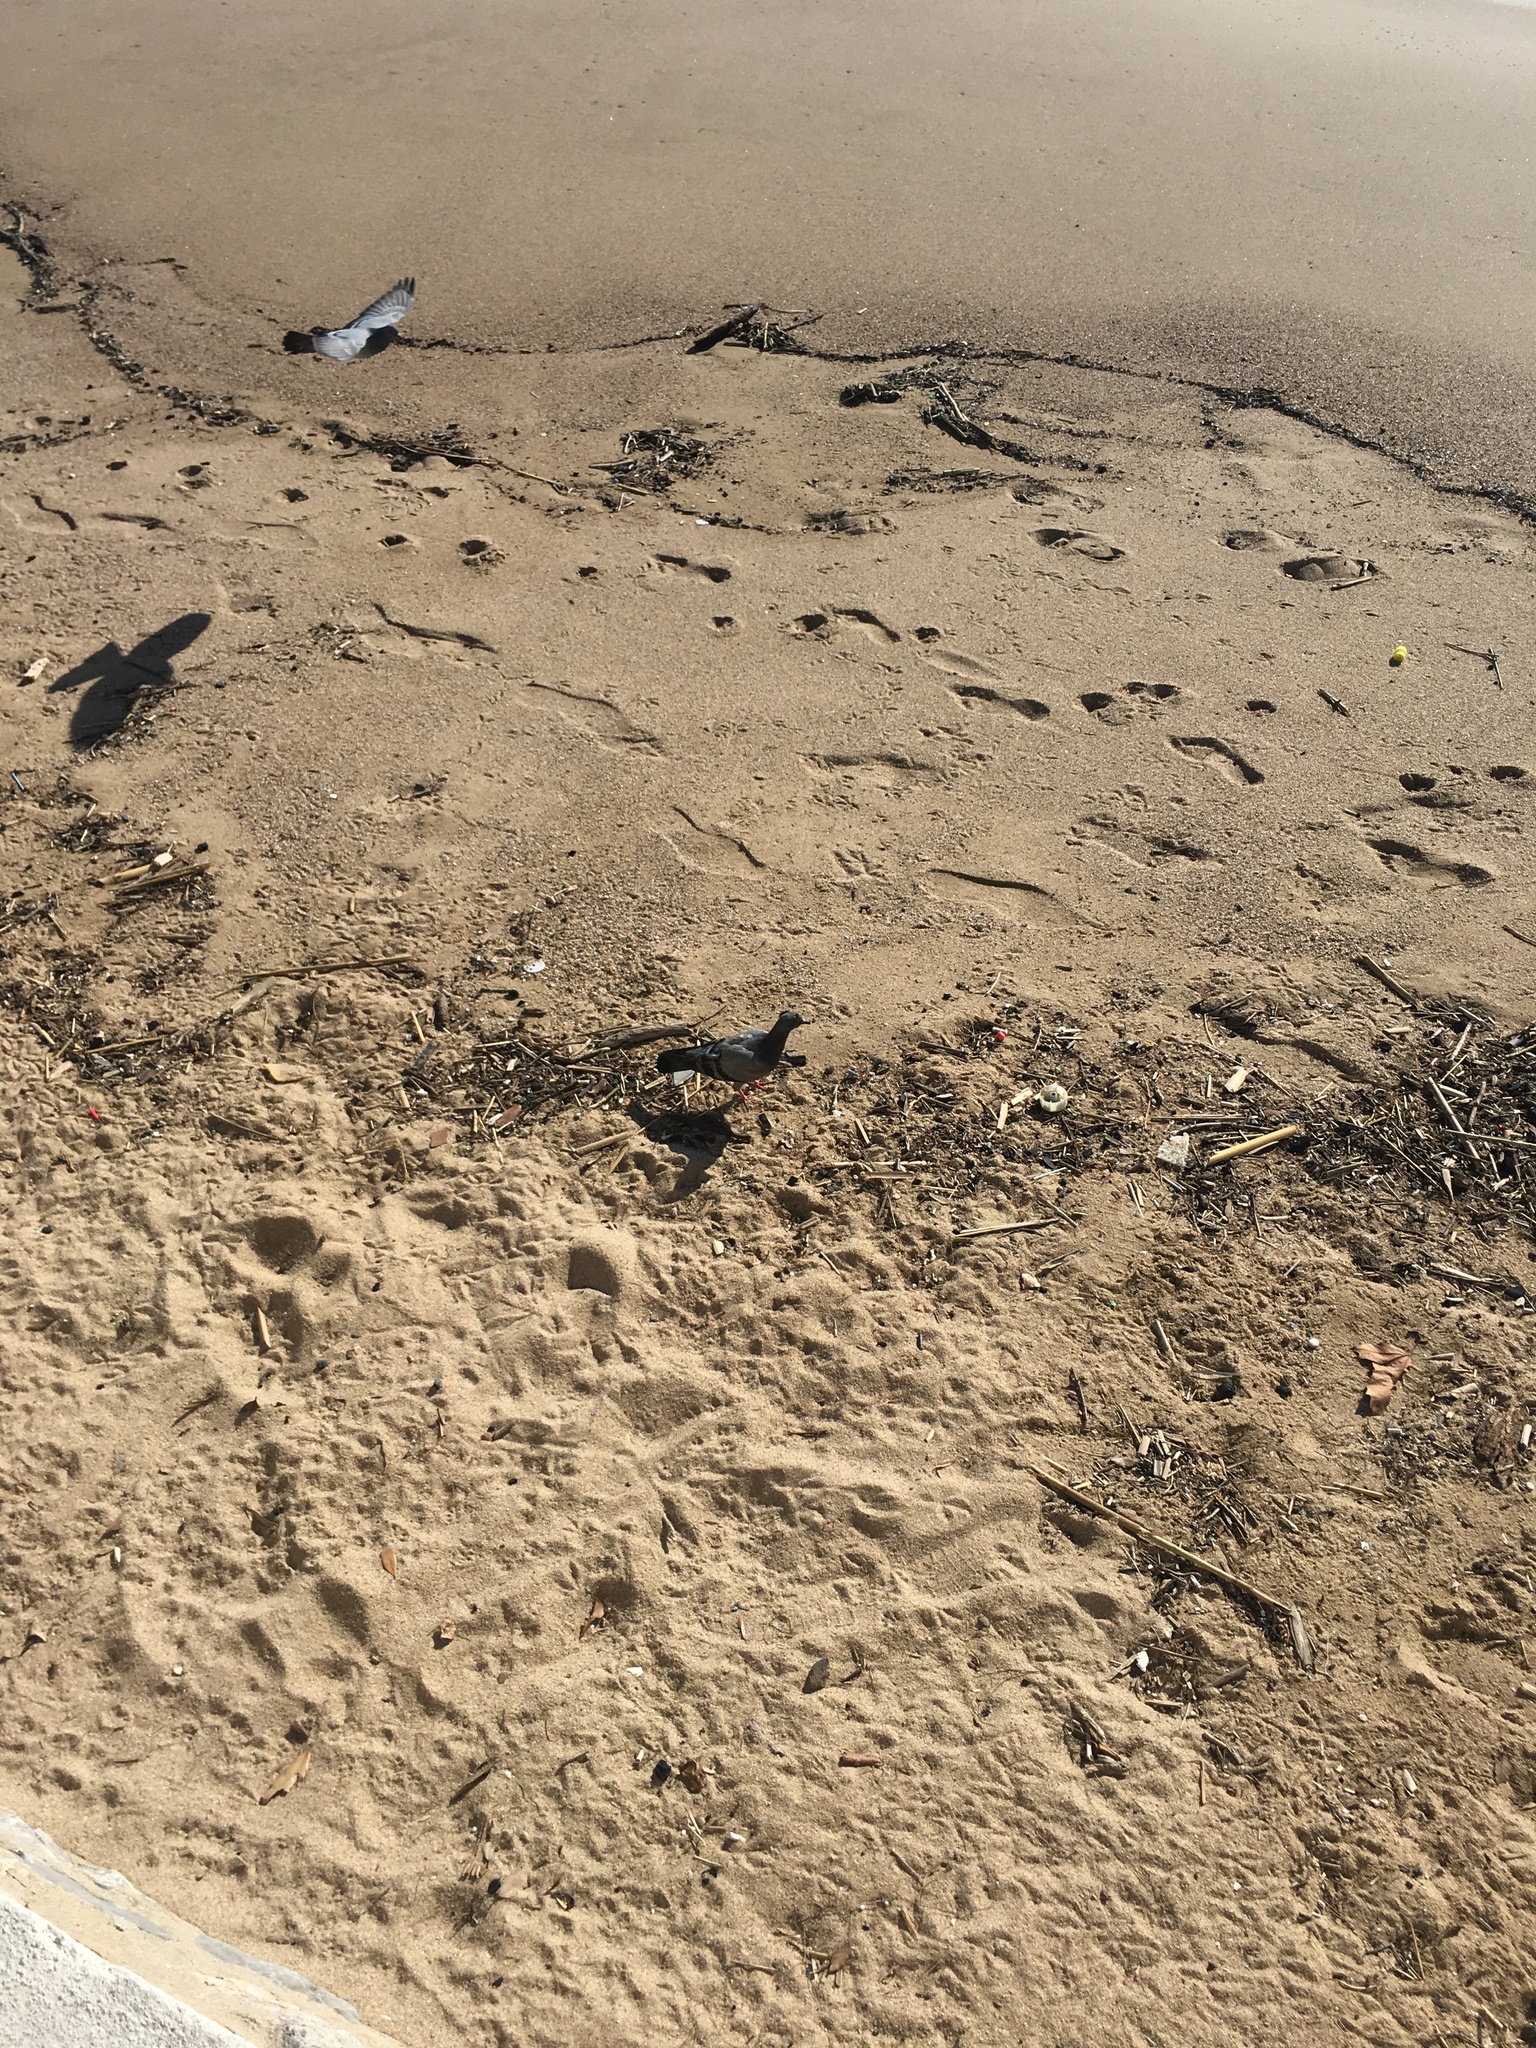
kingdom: Animalia
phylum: Chordata
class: Aves
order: Columbiformes
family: Columbidae
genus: Columba
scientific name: Columba livia
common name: Rock pigeon
